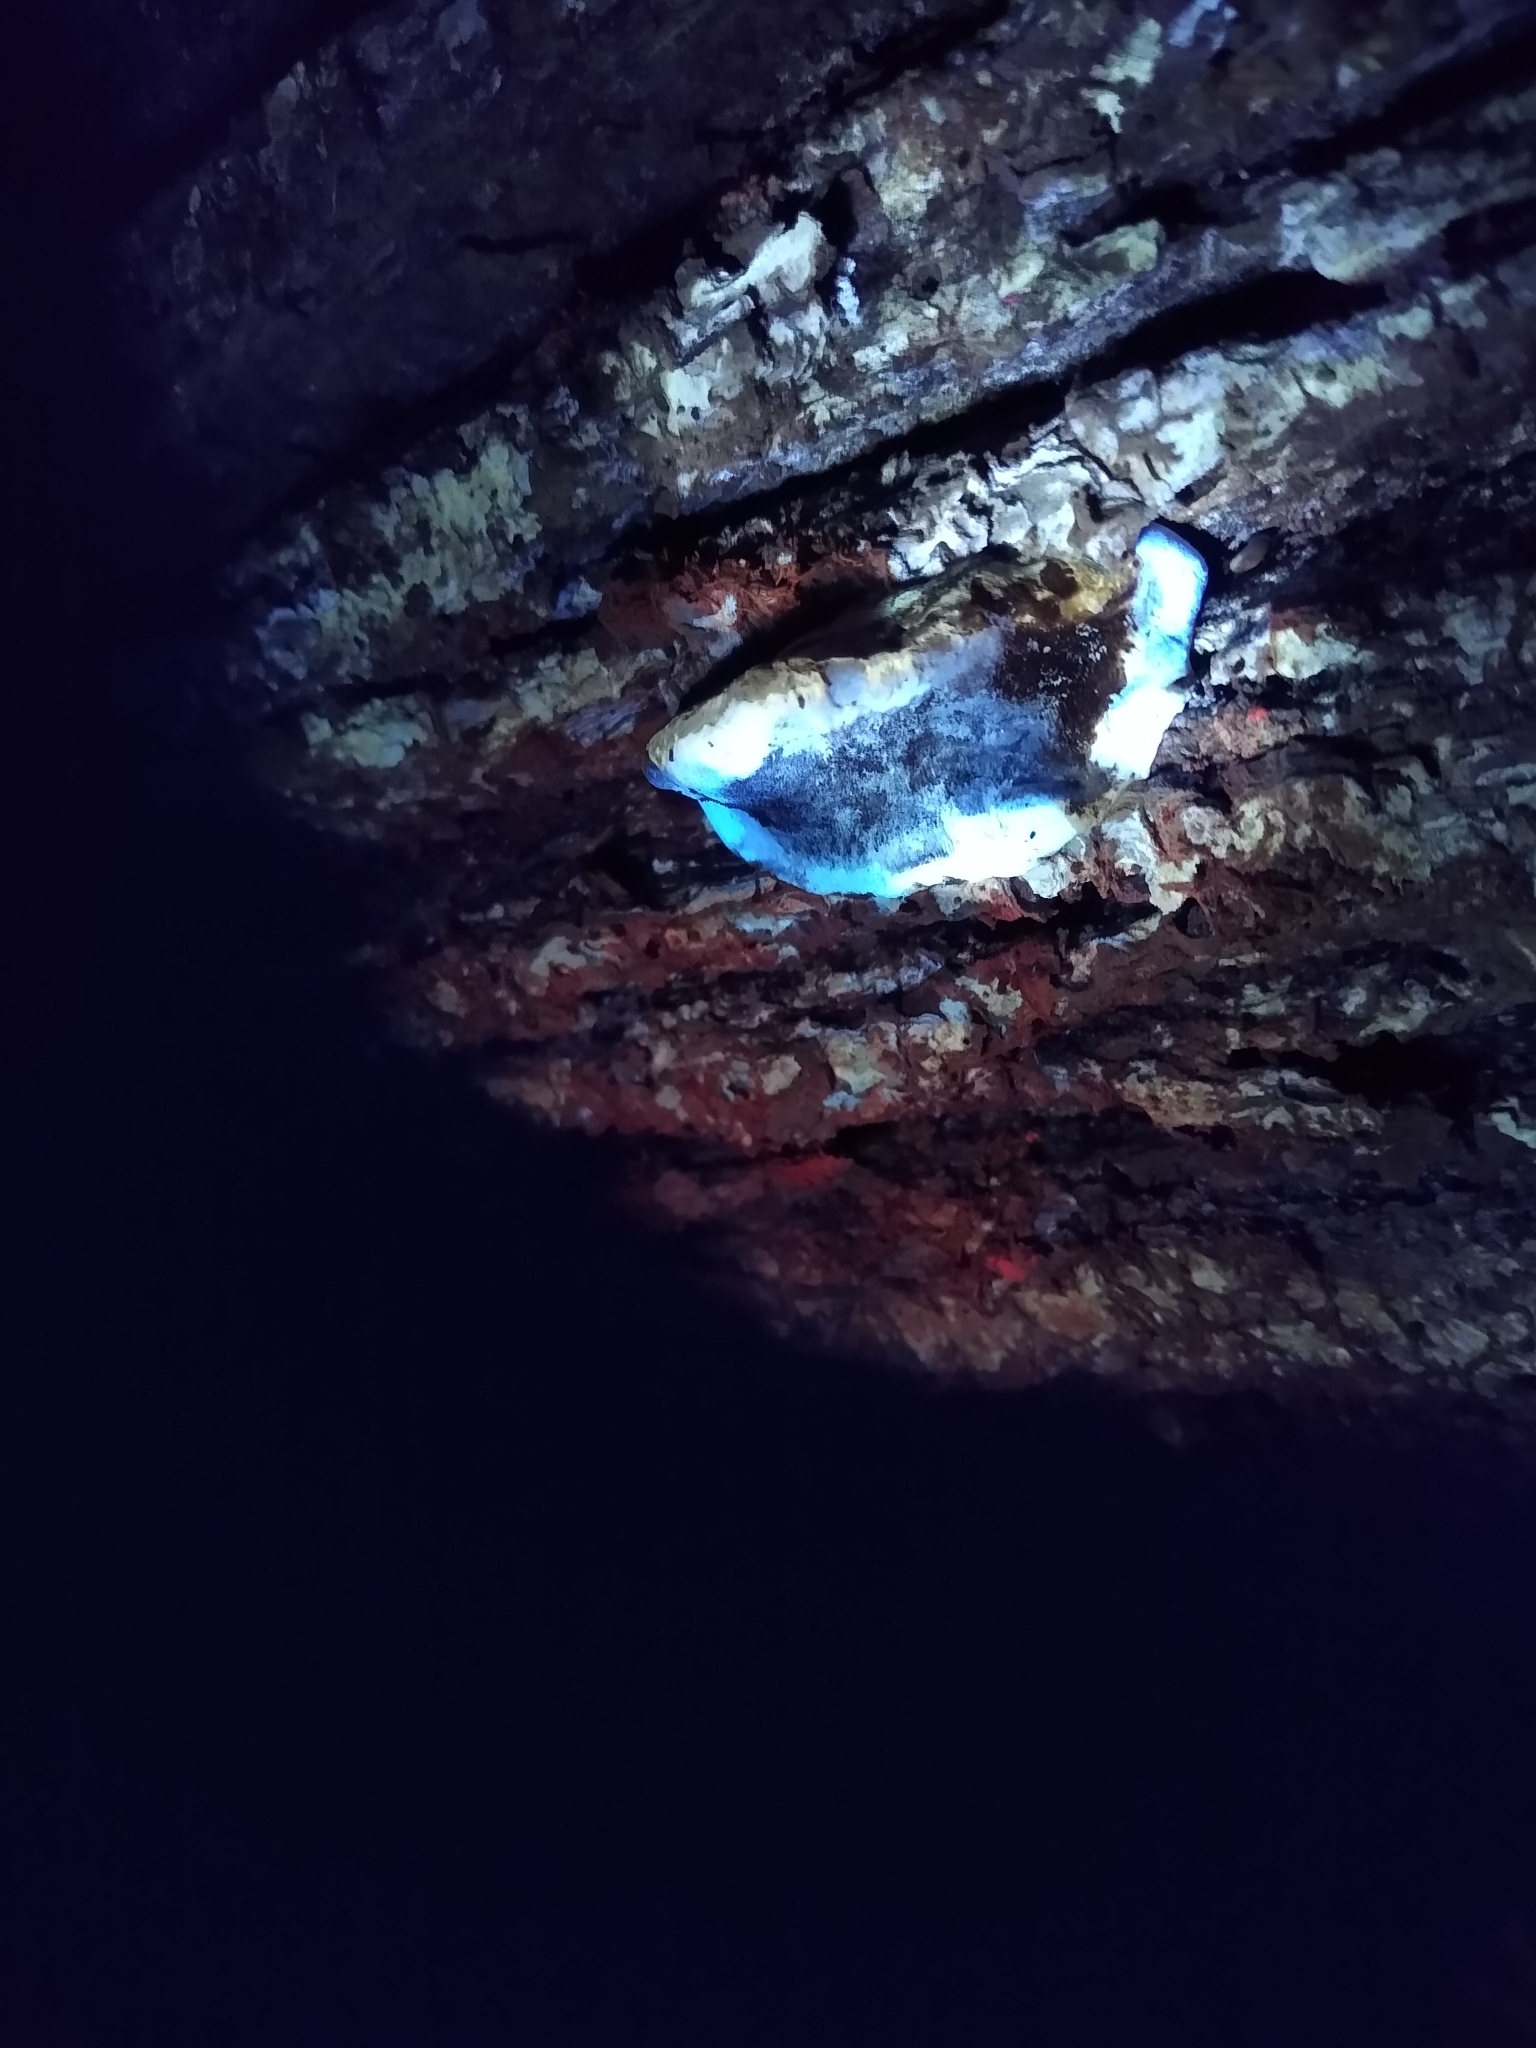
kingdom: Fungi
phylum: Basidiomycota
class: Agaricomycetes
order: Polyporales
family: Polyporaceae
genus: Ganoderma
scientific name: Ganoderma applanatum
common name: Artist's bracket
